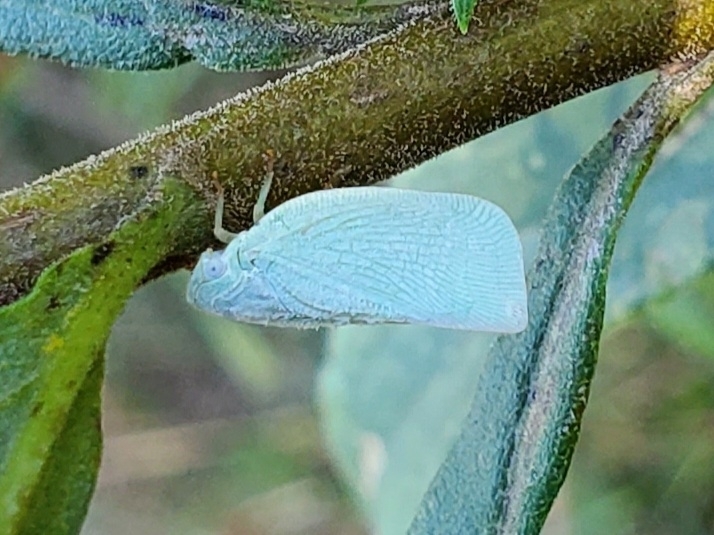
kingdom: Animalia
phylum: Arthropoda
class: Insecta
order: Hemiptera
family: Flatidae
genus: Flatormenis
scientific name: Flatormenis proxima
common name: Northern flatid planthopper
